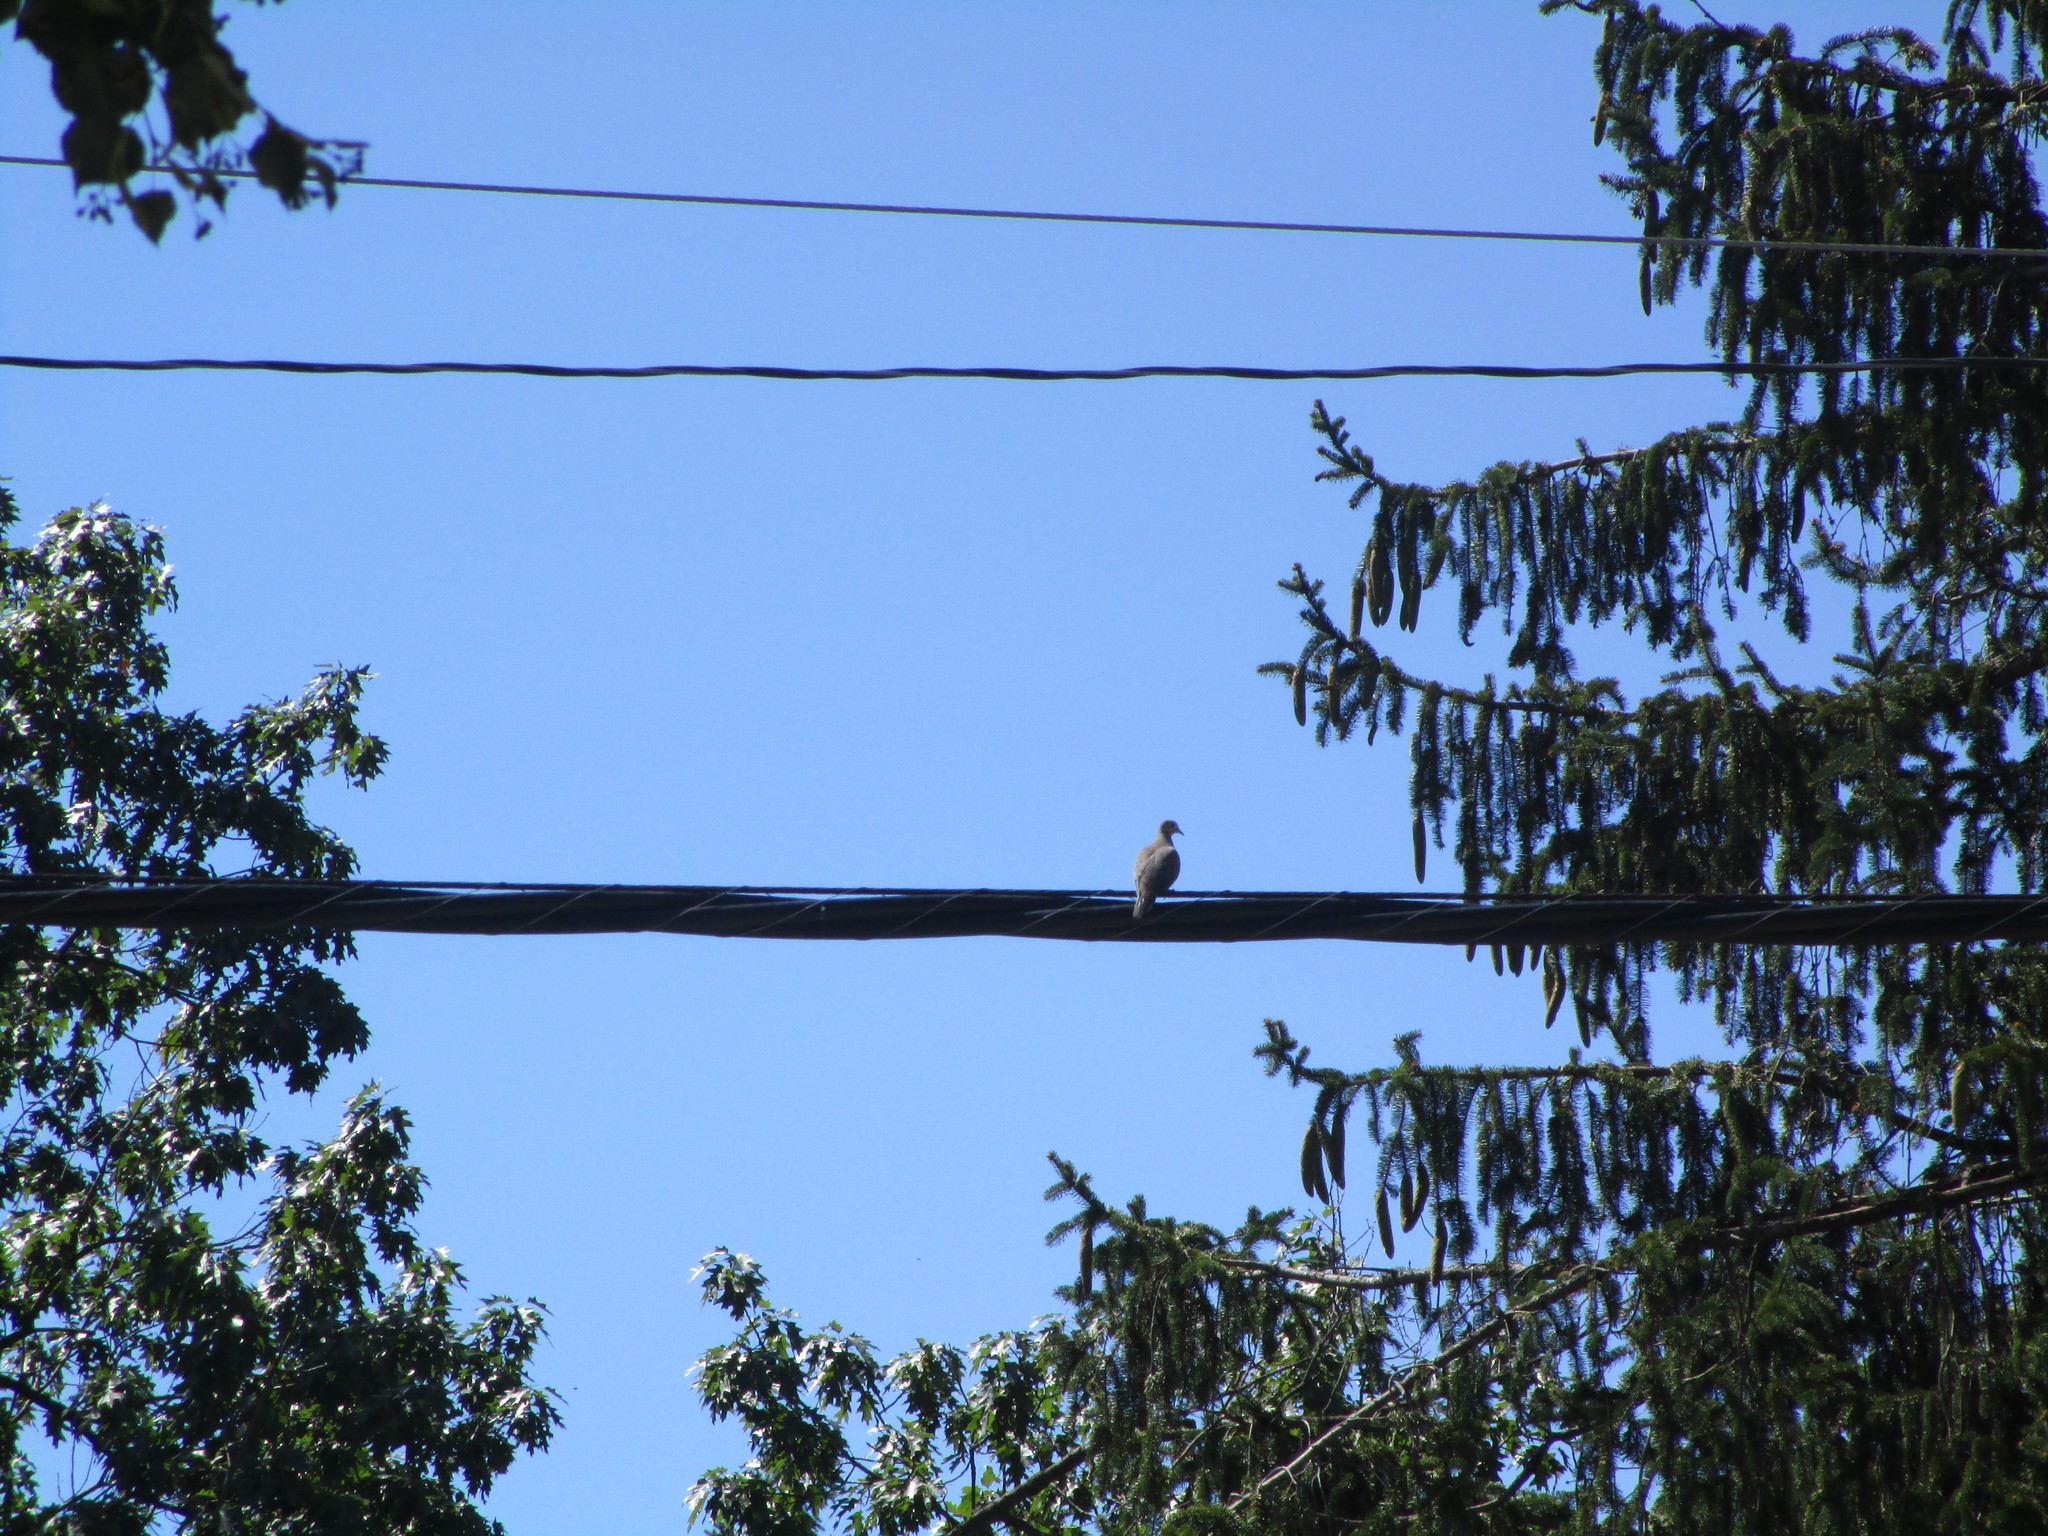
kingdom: Animalia
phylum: Chordata
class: Aves
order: Columbiformes
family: Columbidae
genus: Zenaida
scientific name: Zenaida macroura
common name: Mourning dove
